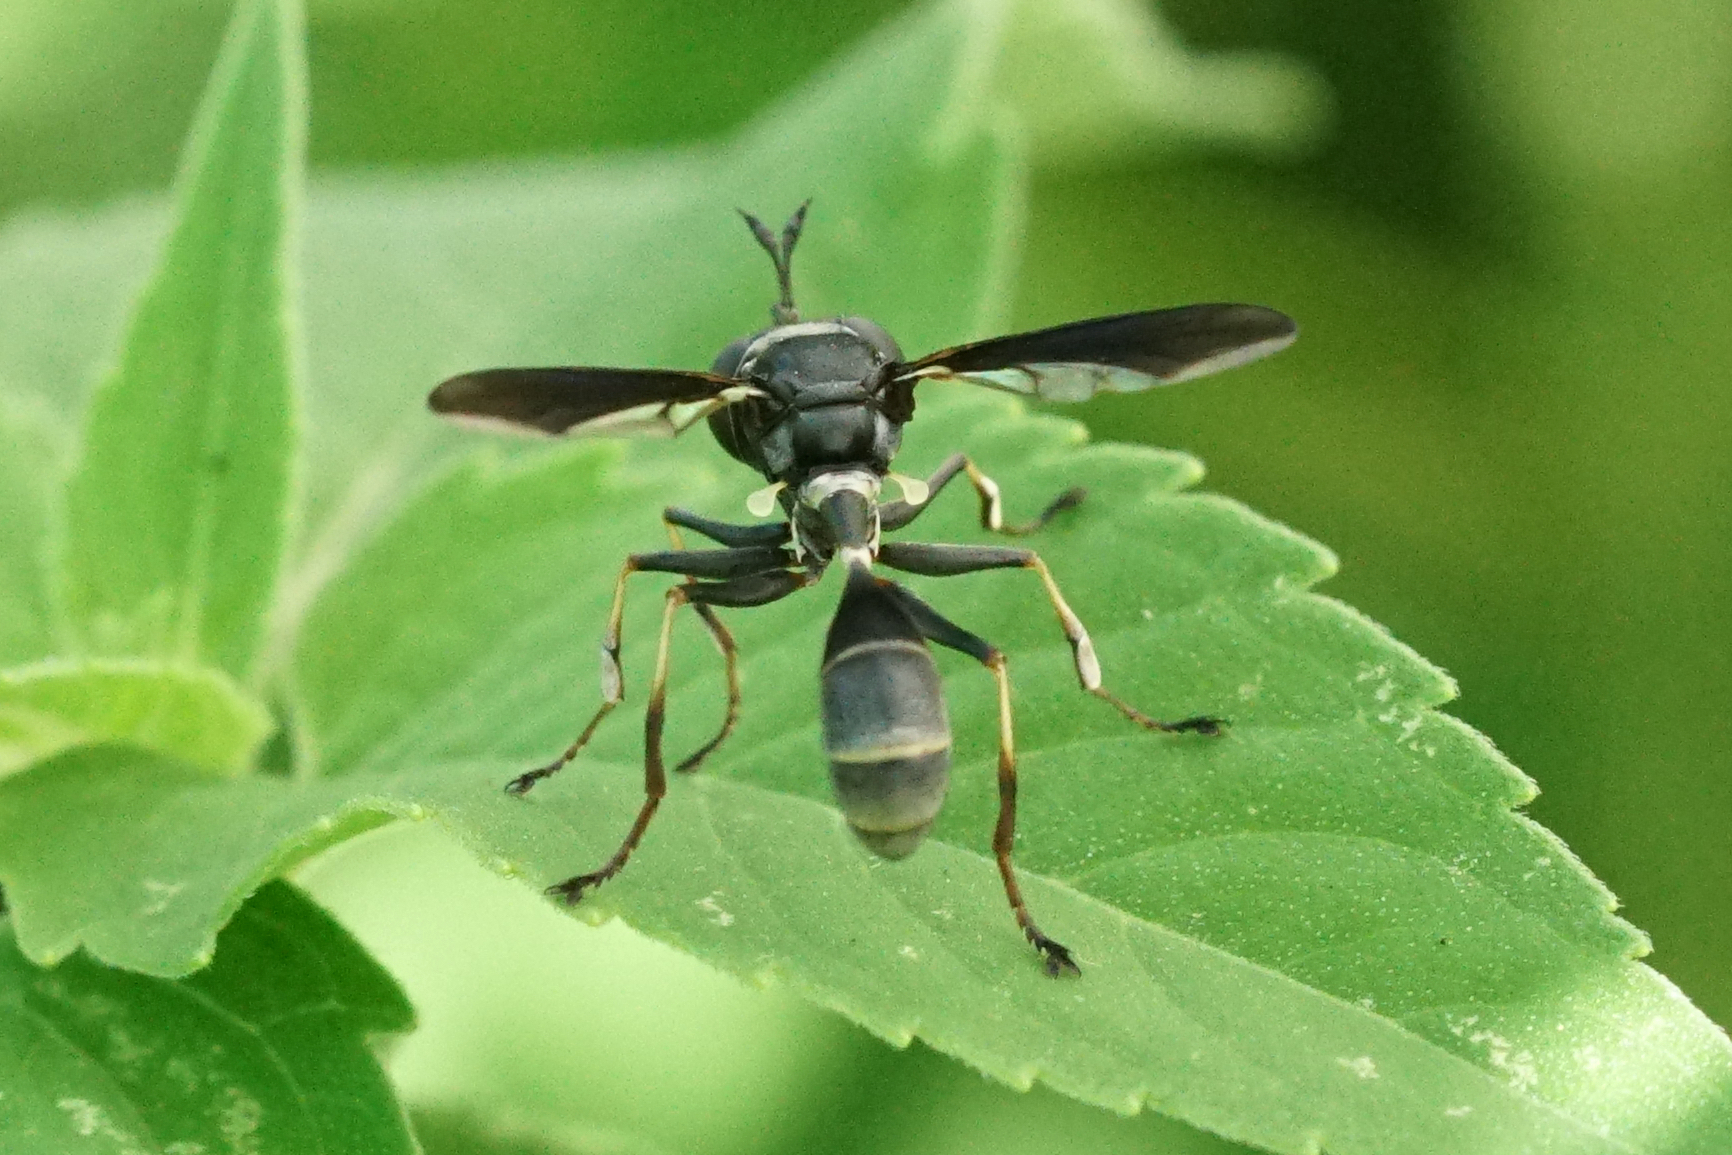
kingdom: Animalia
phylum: Arthropoda
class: Insecta
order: Diptera
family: Conopidae
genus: Physocephala
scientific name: Physocephala tibialis
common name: Common eastern physocephala
